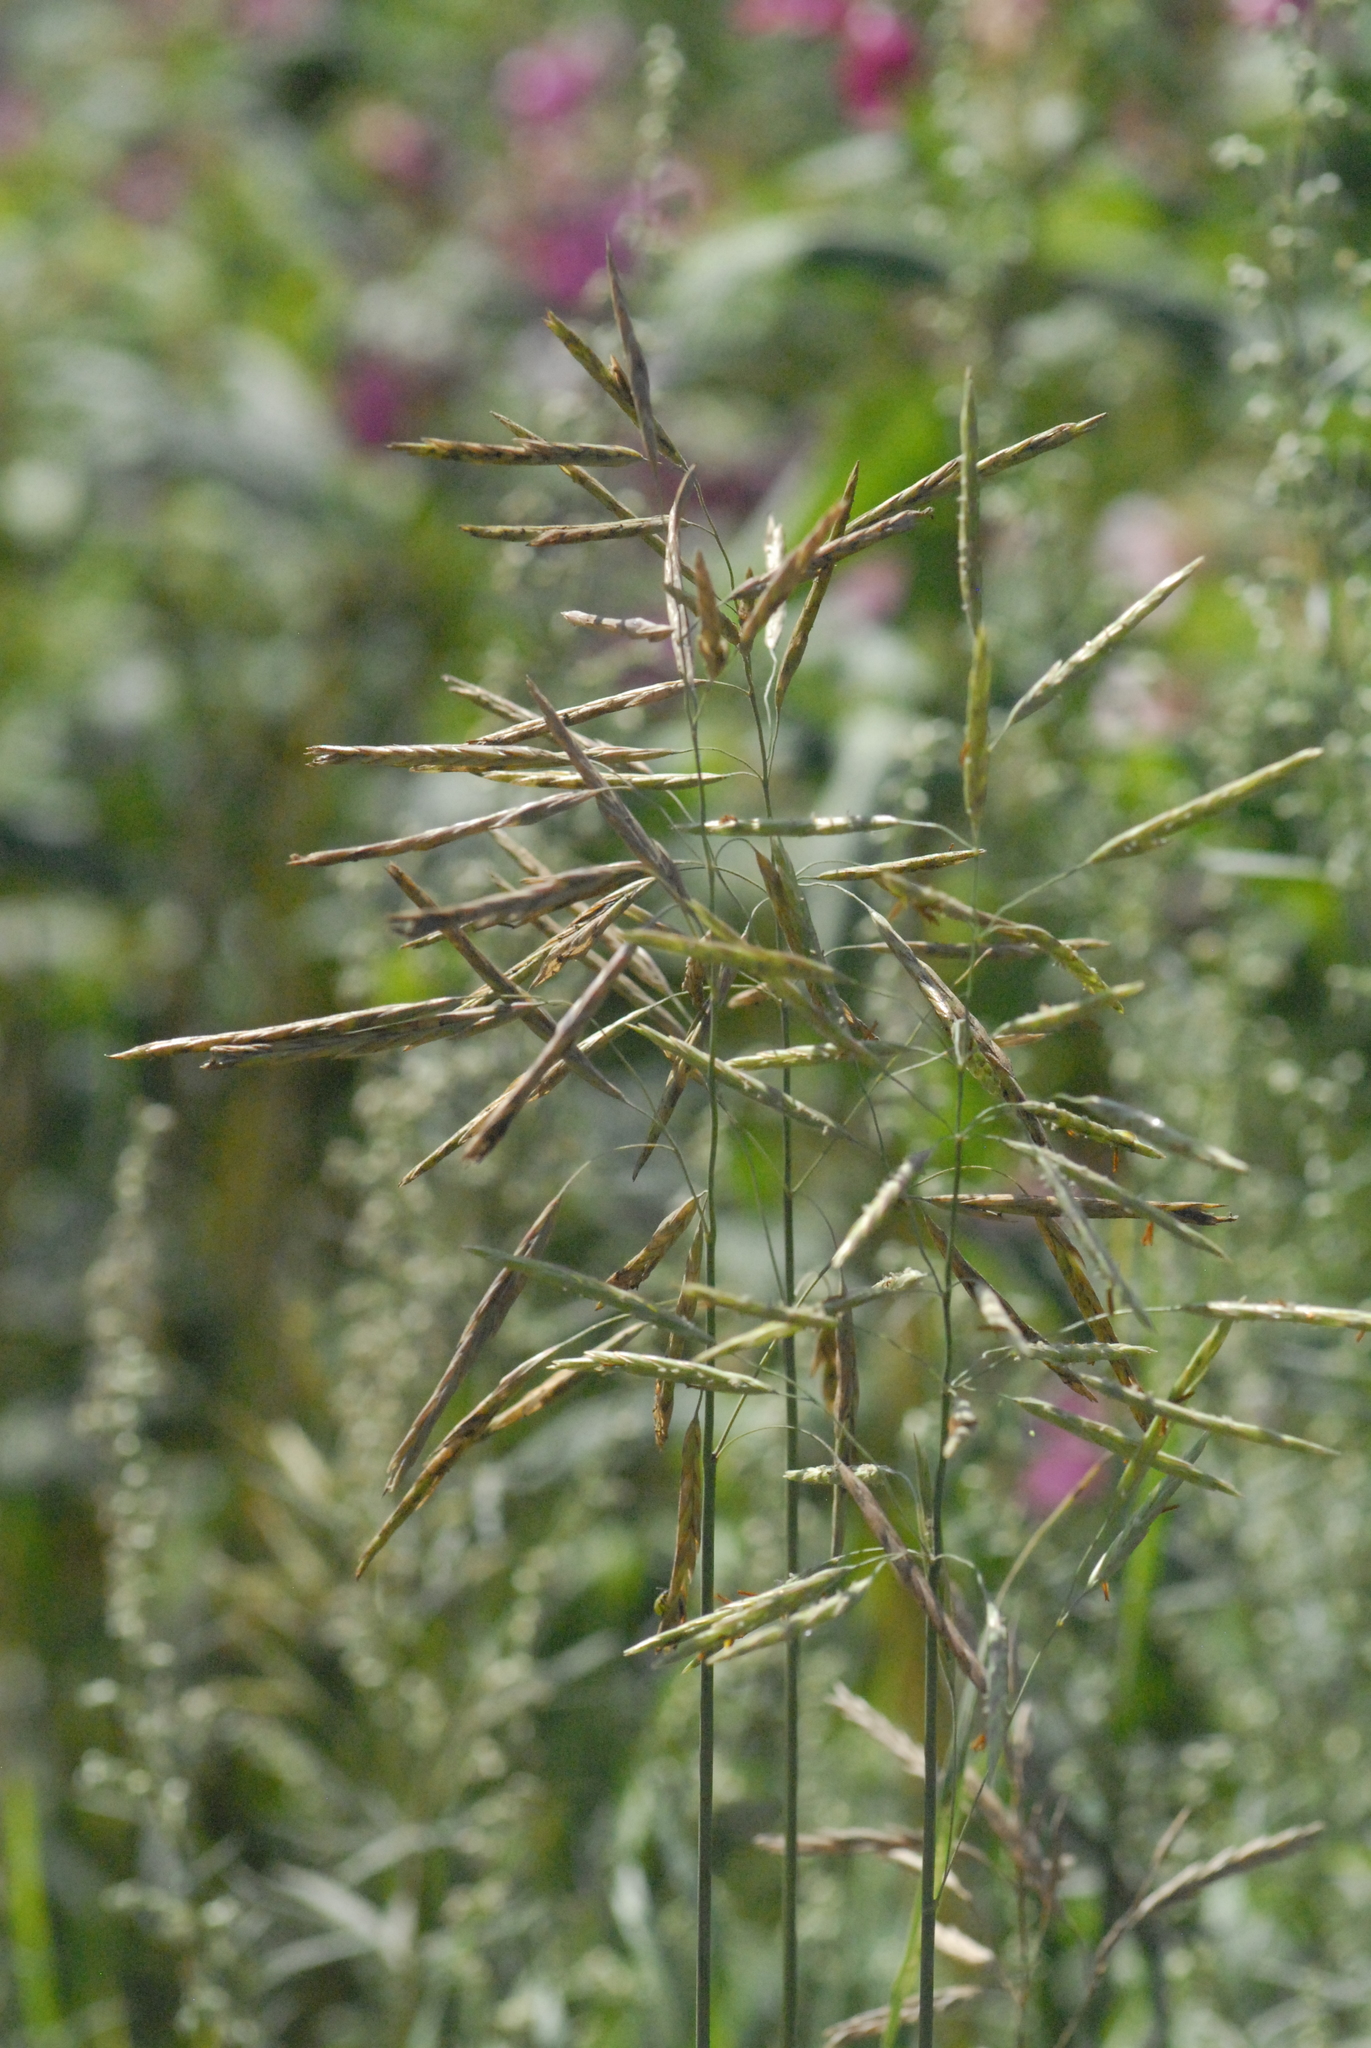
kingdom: Plantae
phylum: Tracheophyta
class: Liliopsida
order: Poales
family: Poaceae
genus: Bromus
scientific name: Bromus inermis
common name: Smooth brome
